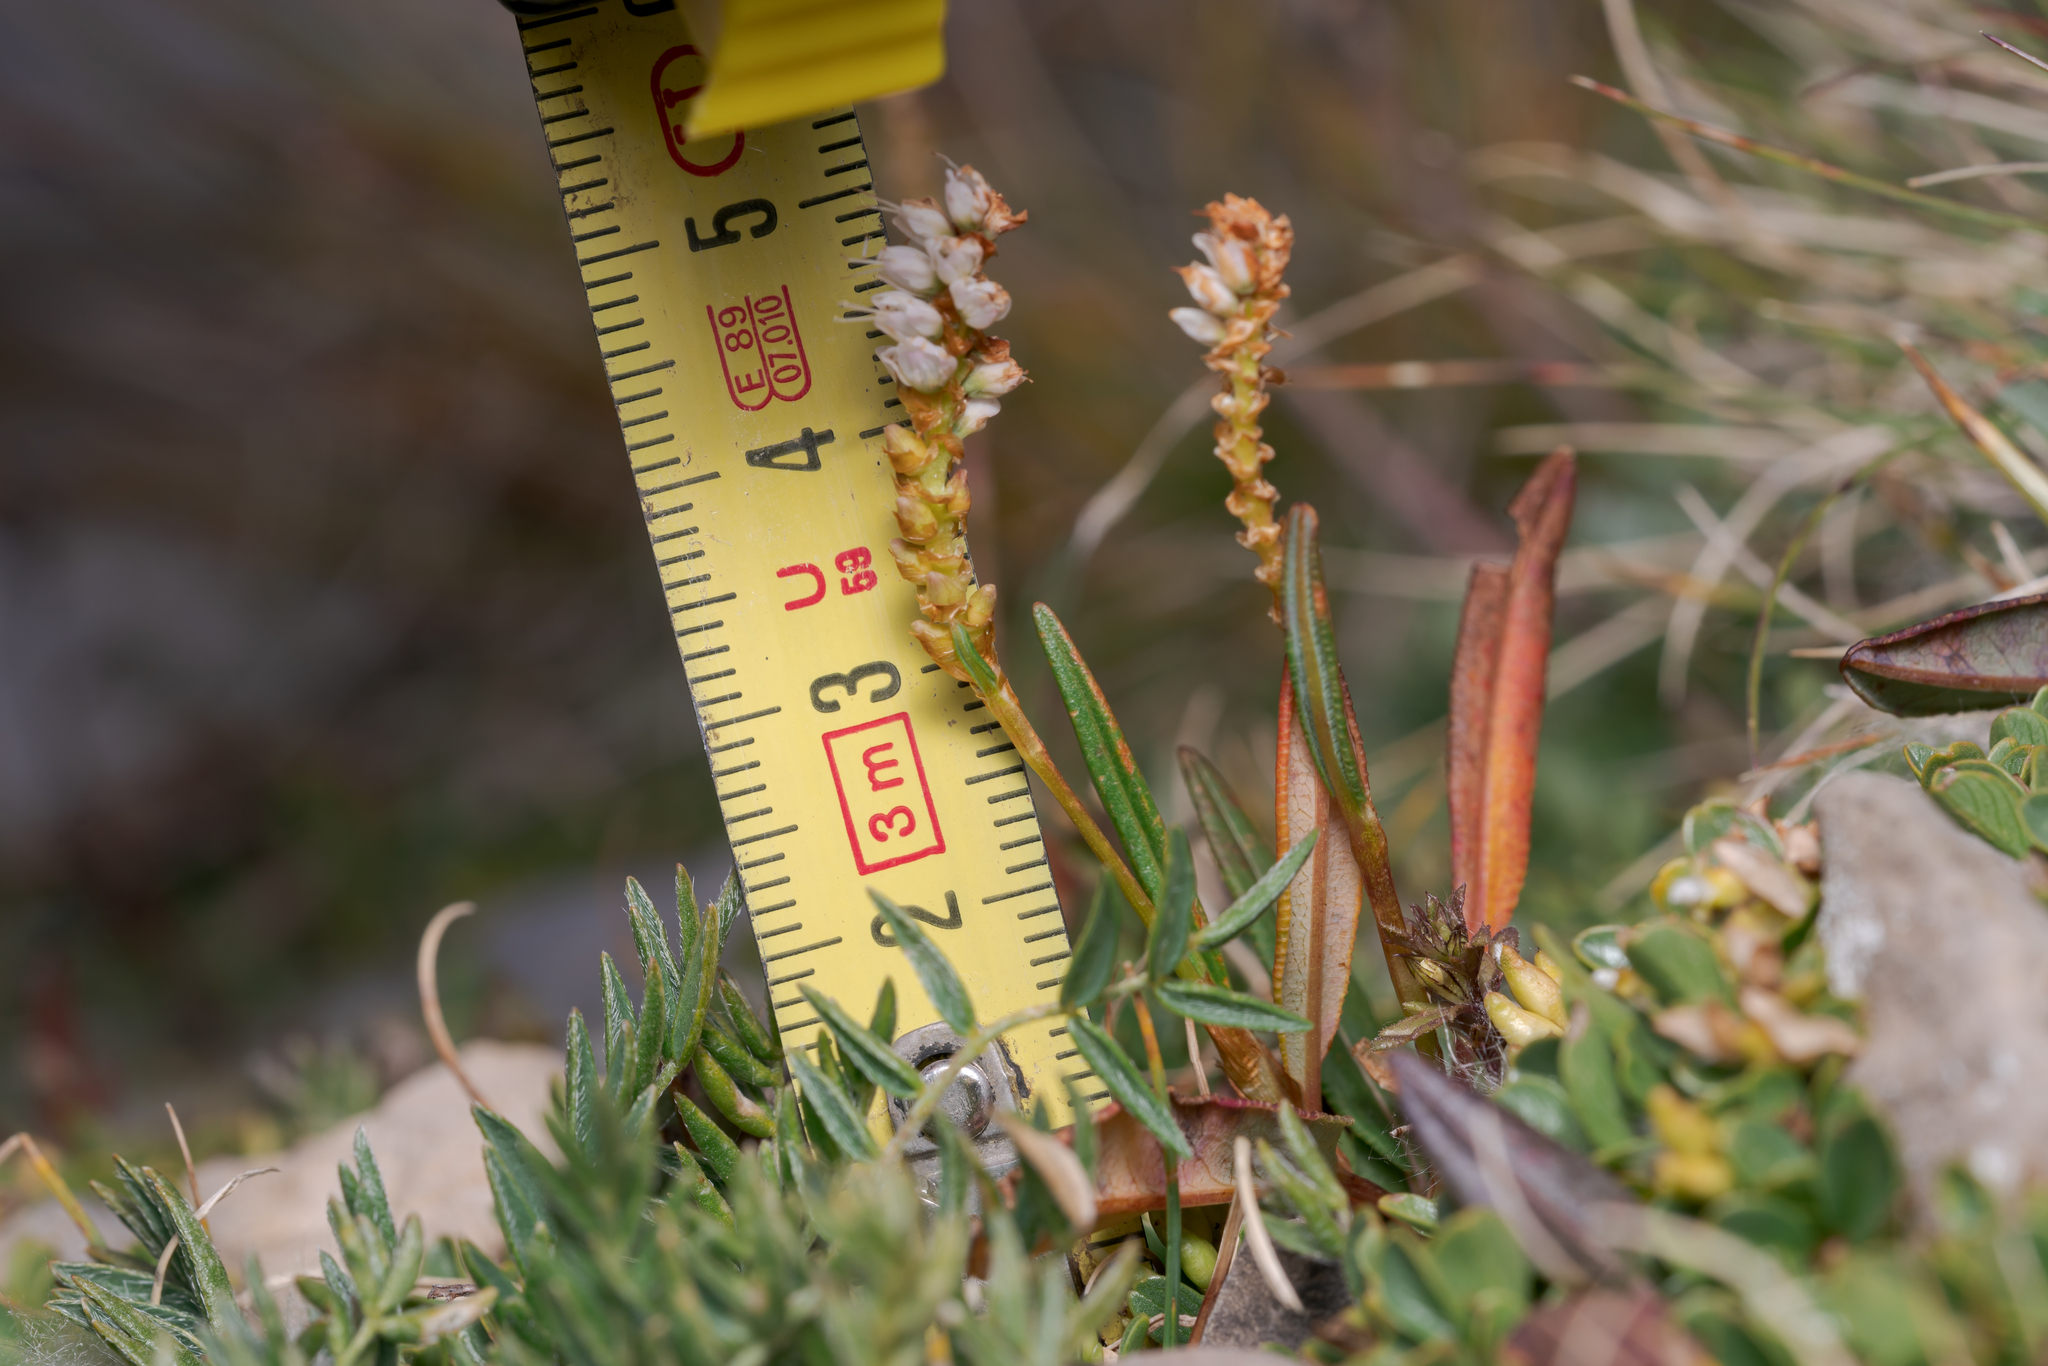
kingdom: Plantae
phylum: Tracheophyta
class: Magnoliopsida
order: Caryophyllales
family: Polygonaceae
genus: Bistorta
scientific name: Bistorta vivipara
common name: Alpine bistort
